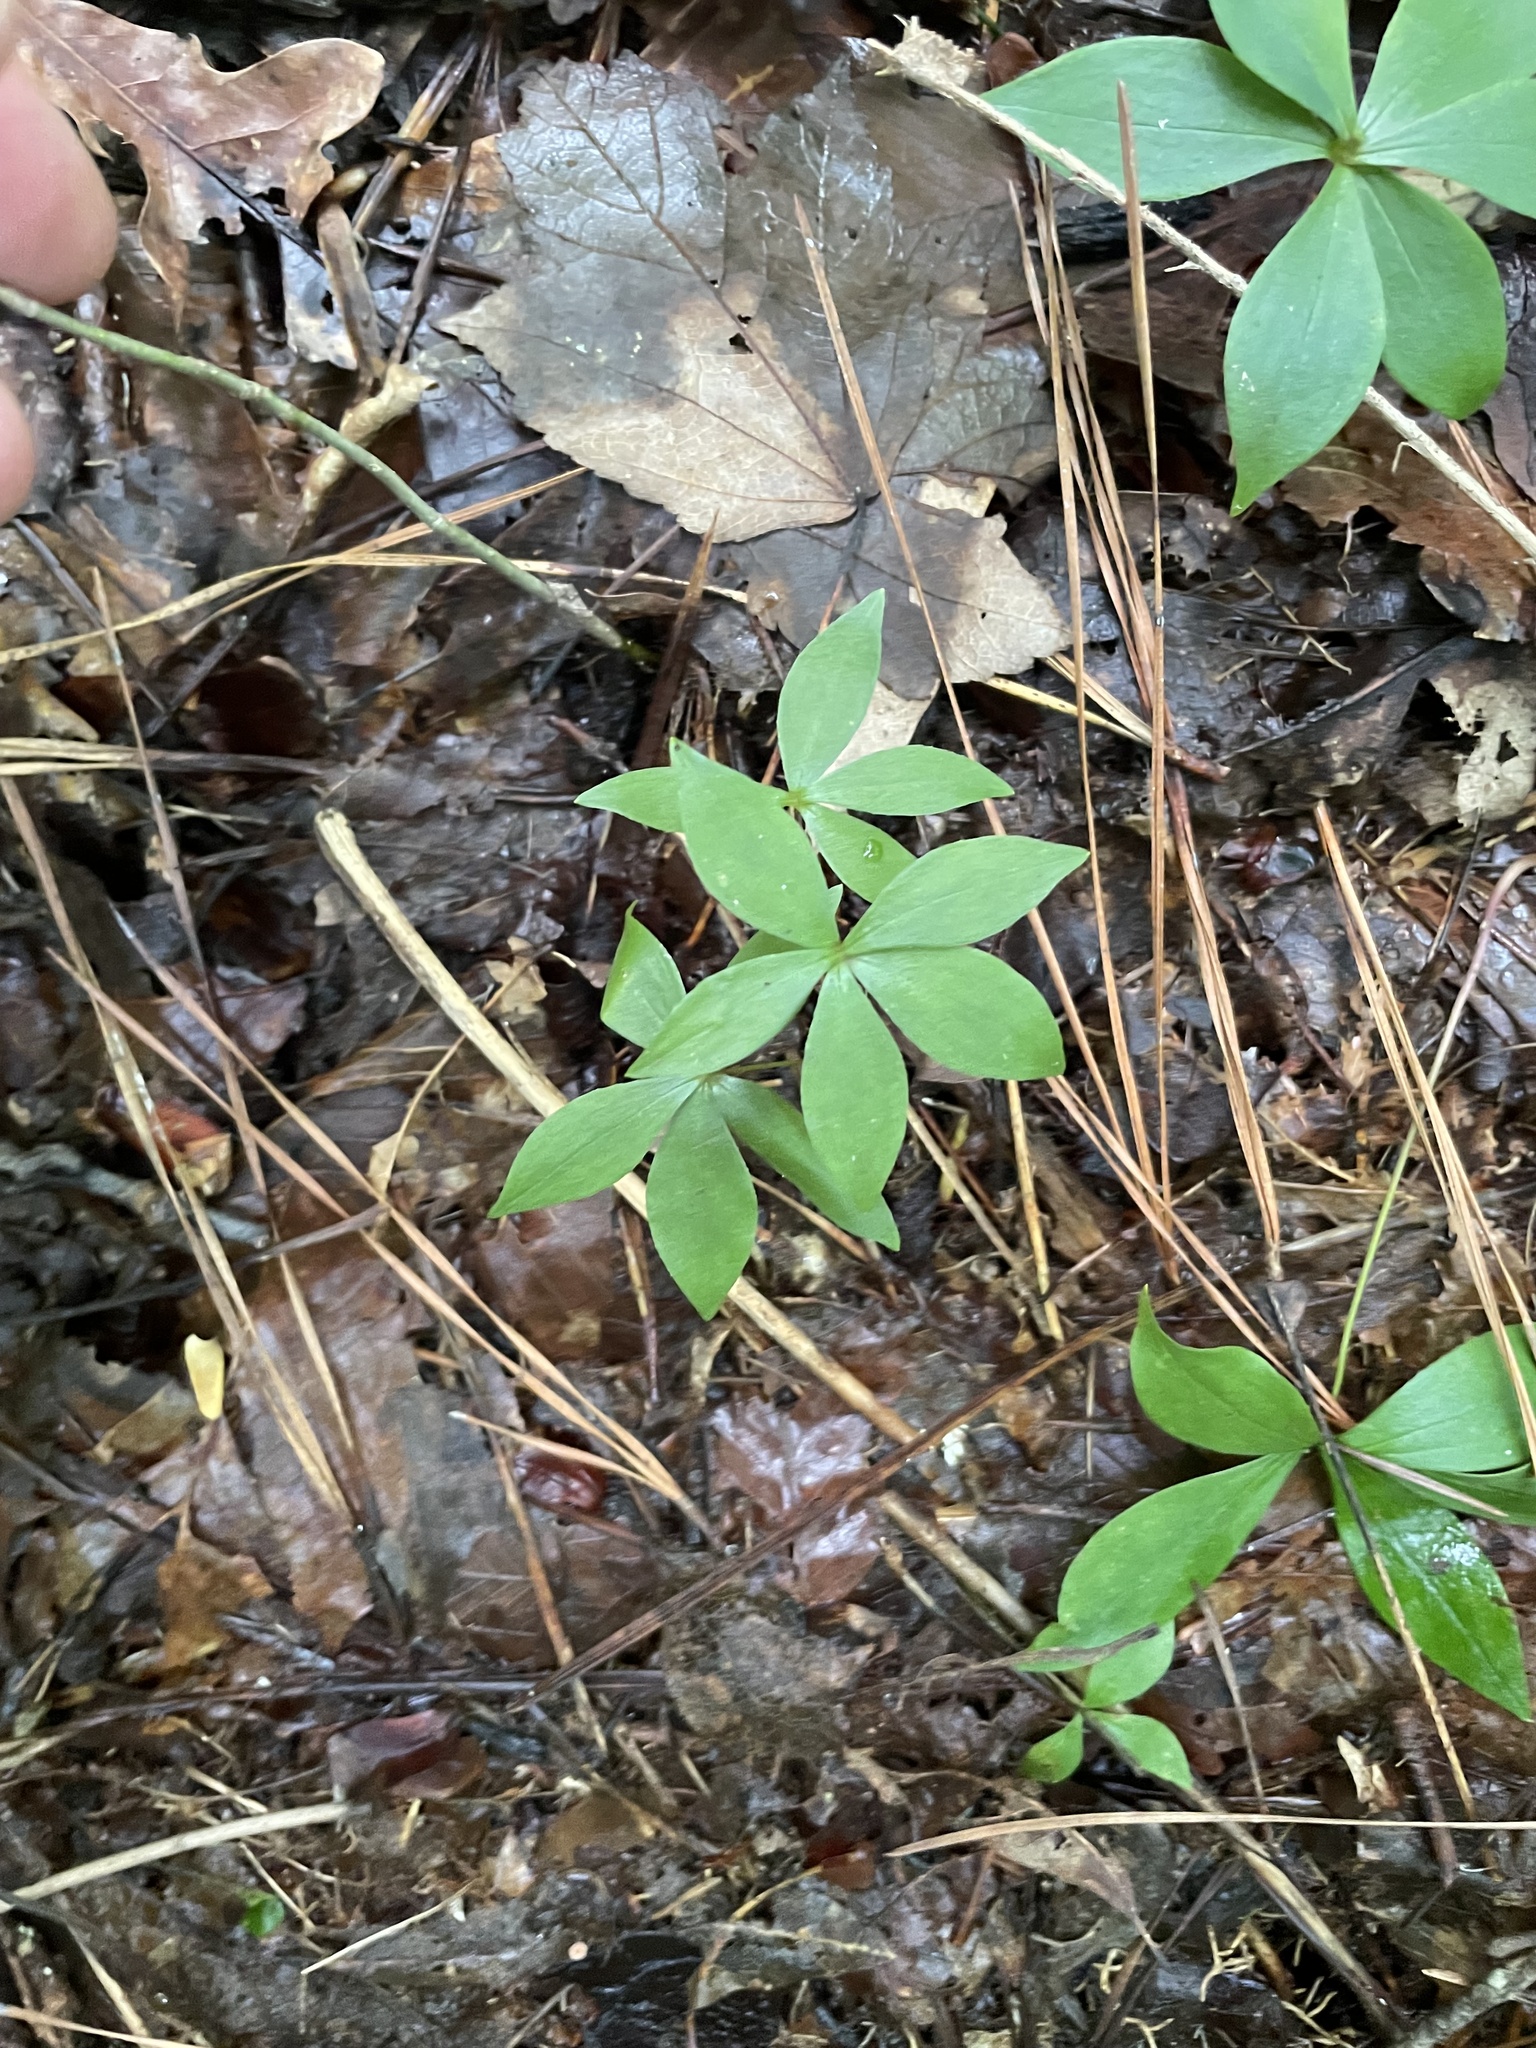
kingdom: Plantae
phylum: Tracheophyta
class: Liliopsida
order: Liliales
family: Liliaceae
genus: Medeola
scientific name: Medeola virginiana
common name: Indian cucumber-root
